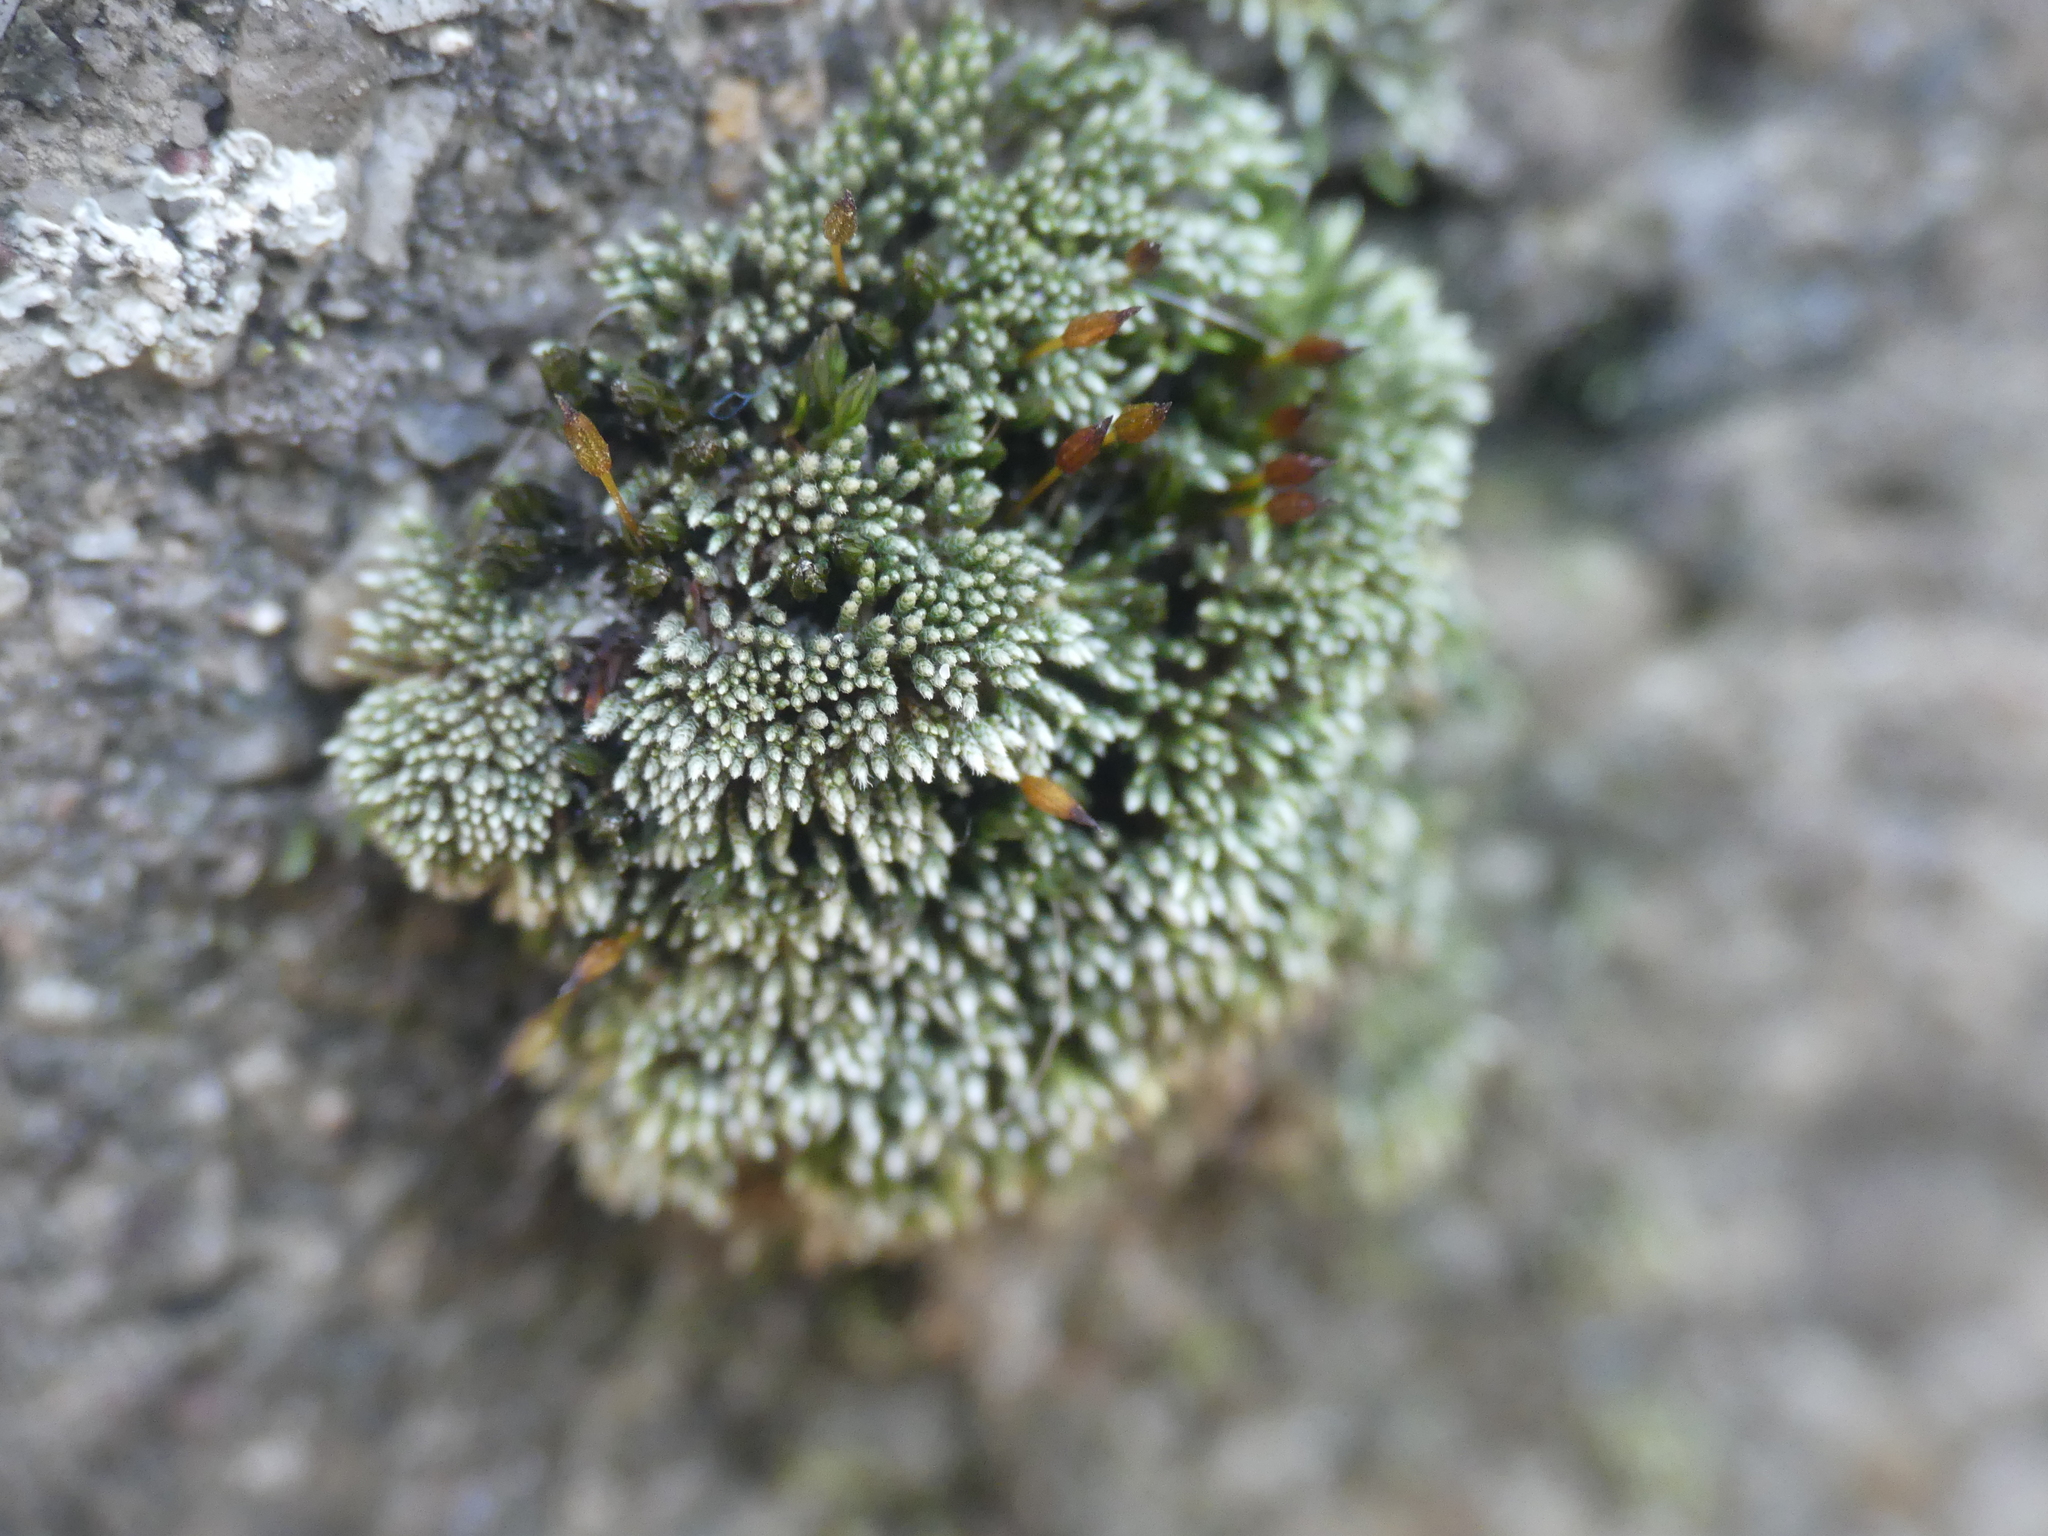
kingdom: Plantae
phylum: Bryophyta
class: Bryopsida
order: Bryales
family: Bryaceae
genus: Bryum
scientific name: Bryum argenteum
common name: Silver-moss
